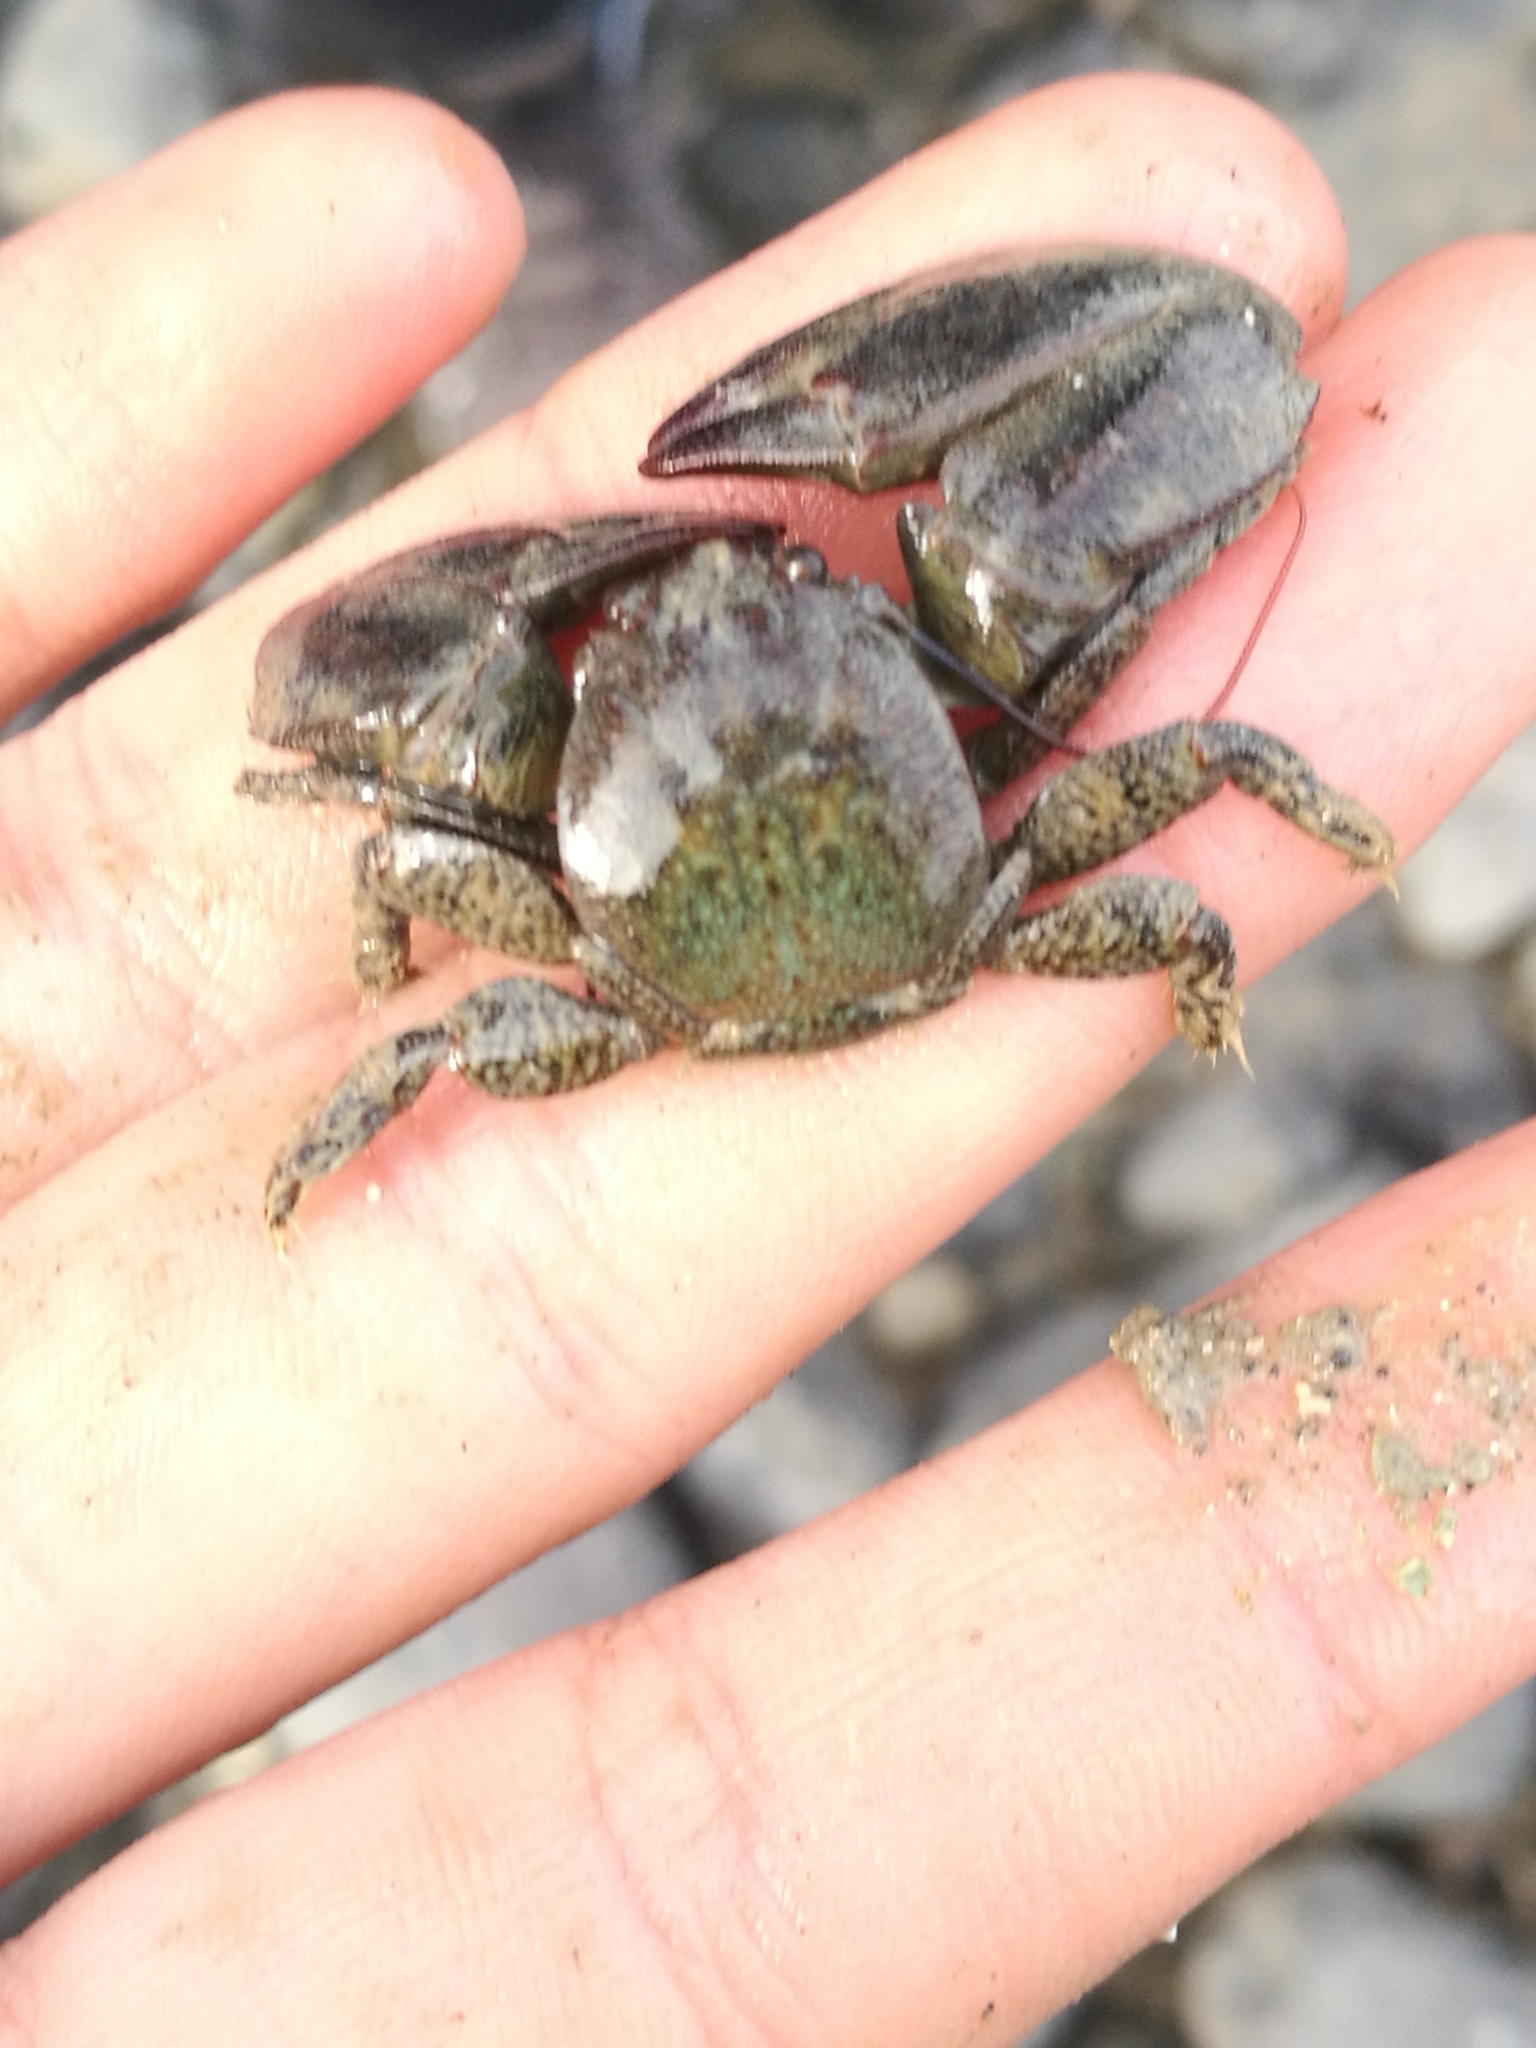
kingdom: Animalia
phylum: Arthropoda
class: Malacostraca
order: Decapoda
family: Porcellanidae
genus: Petrolisthes
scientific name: Petrolisthes elongatus
